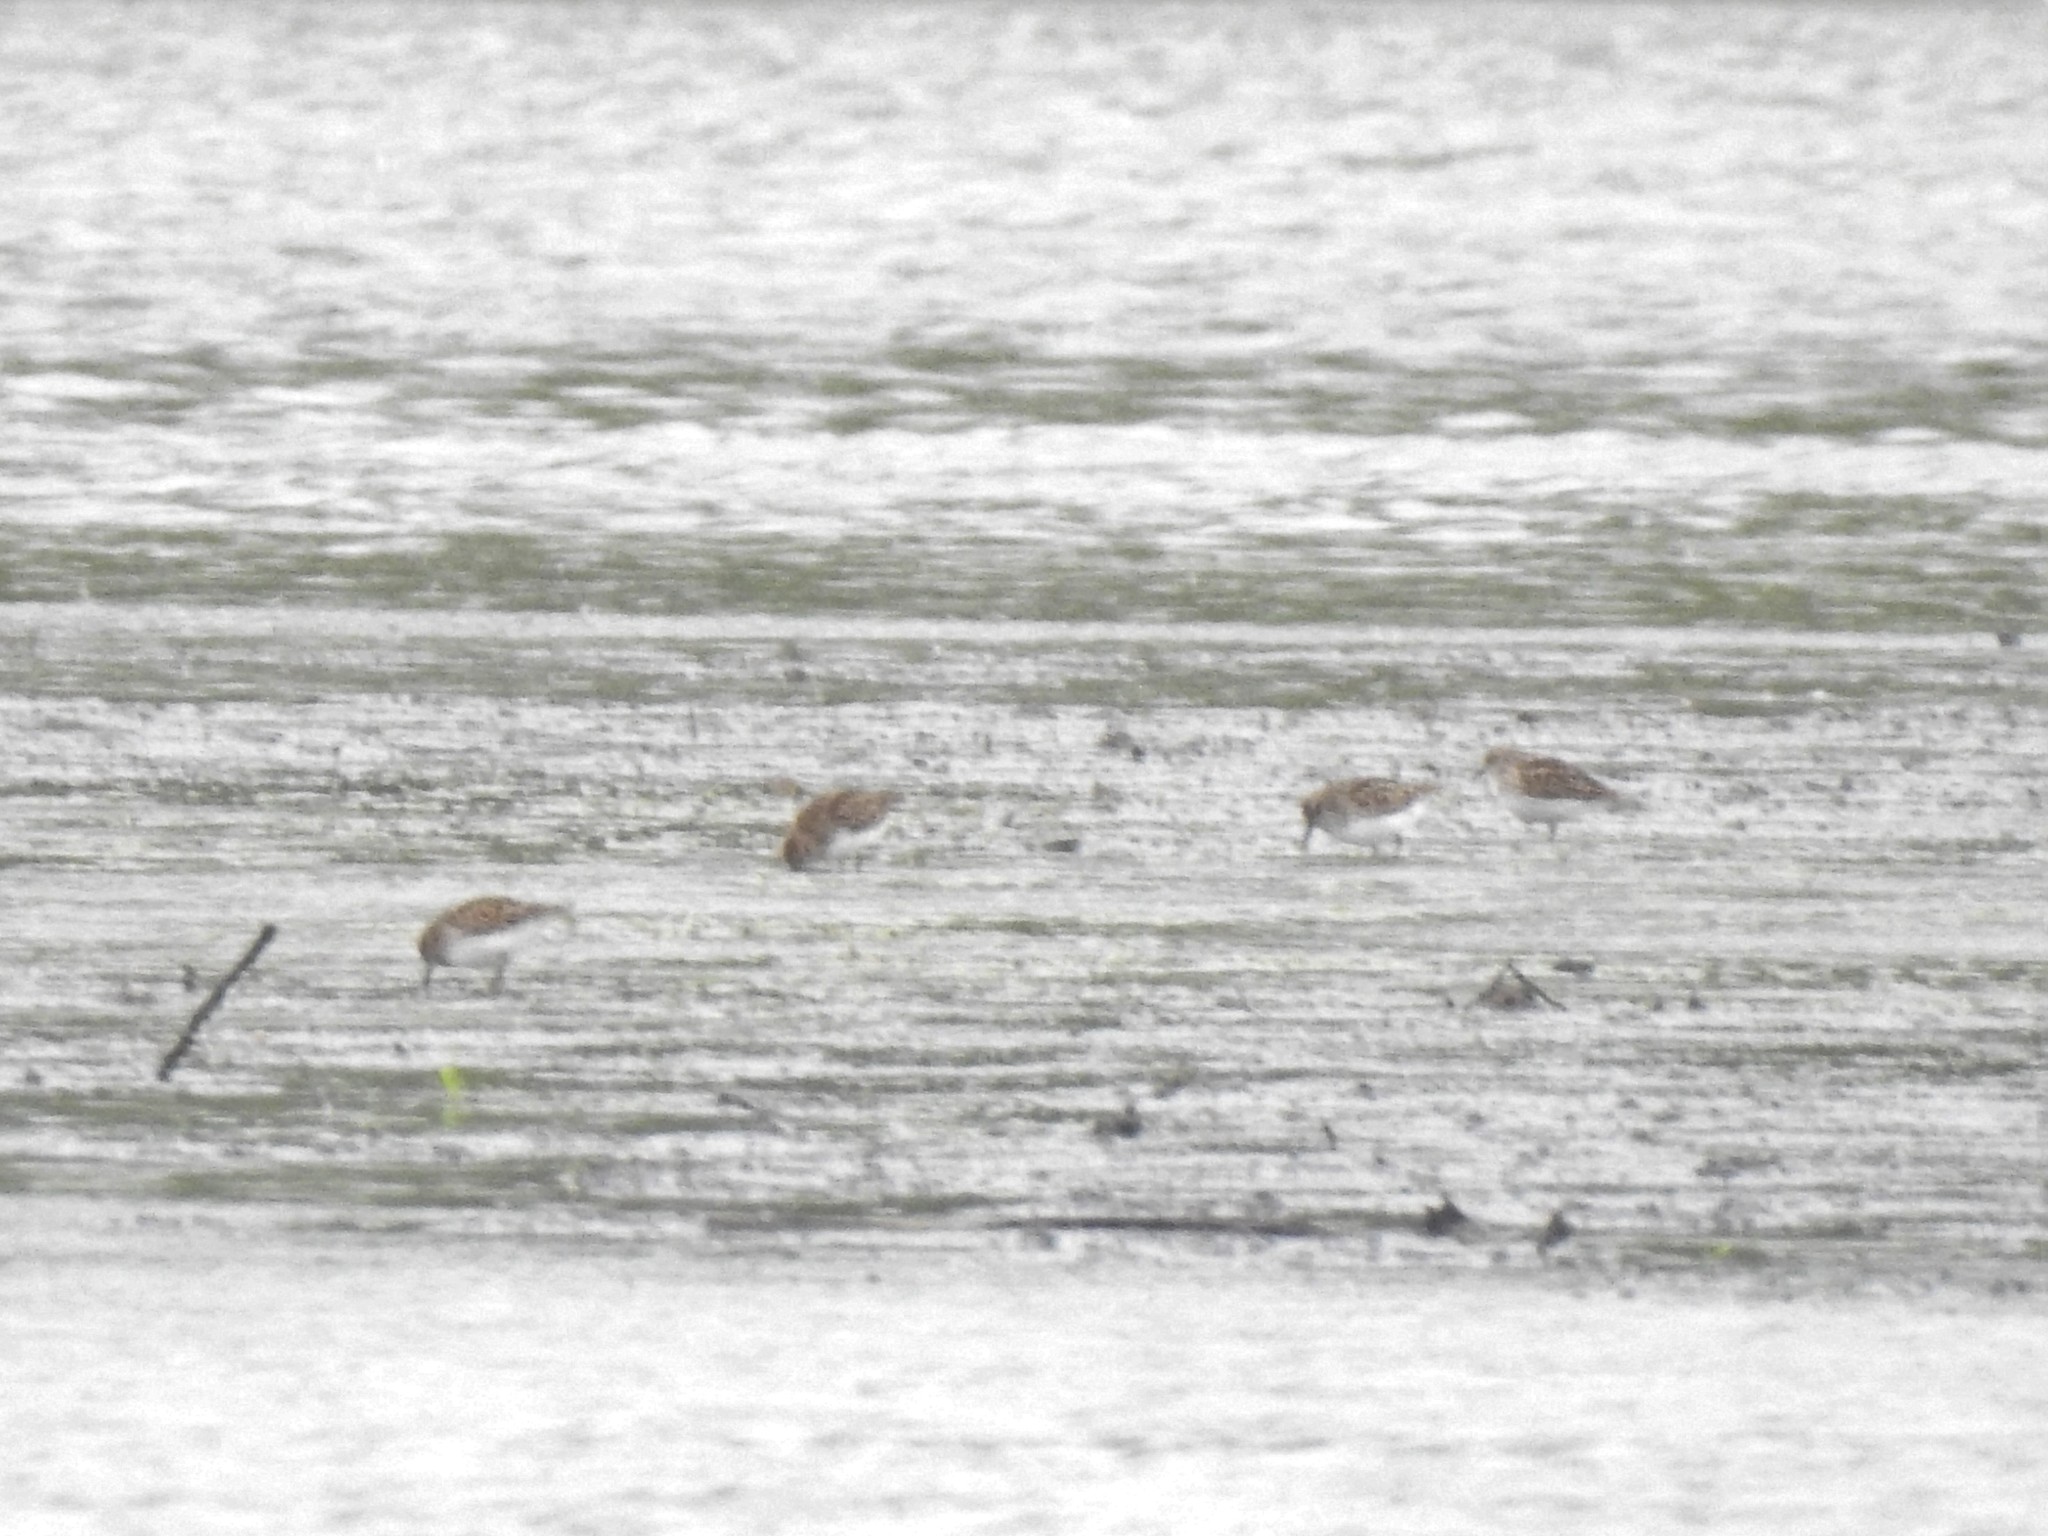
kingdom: Animalia
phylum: Chordata
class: Aves
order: Charadriiformes
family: Scolopacidae
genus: Calidris
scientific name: Calidris minutilla
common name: Least sandpiper
